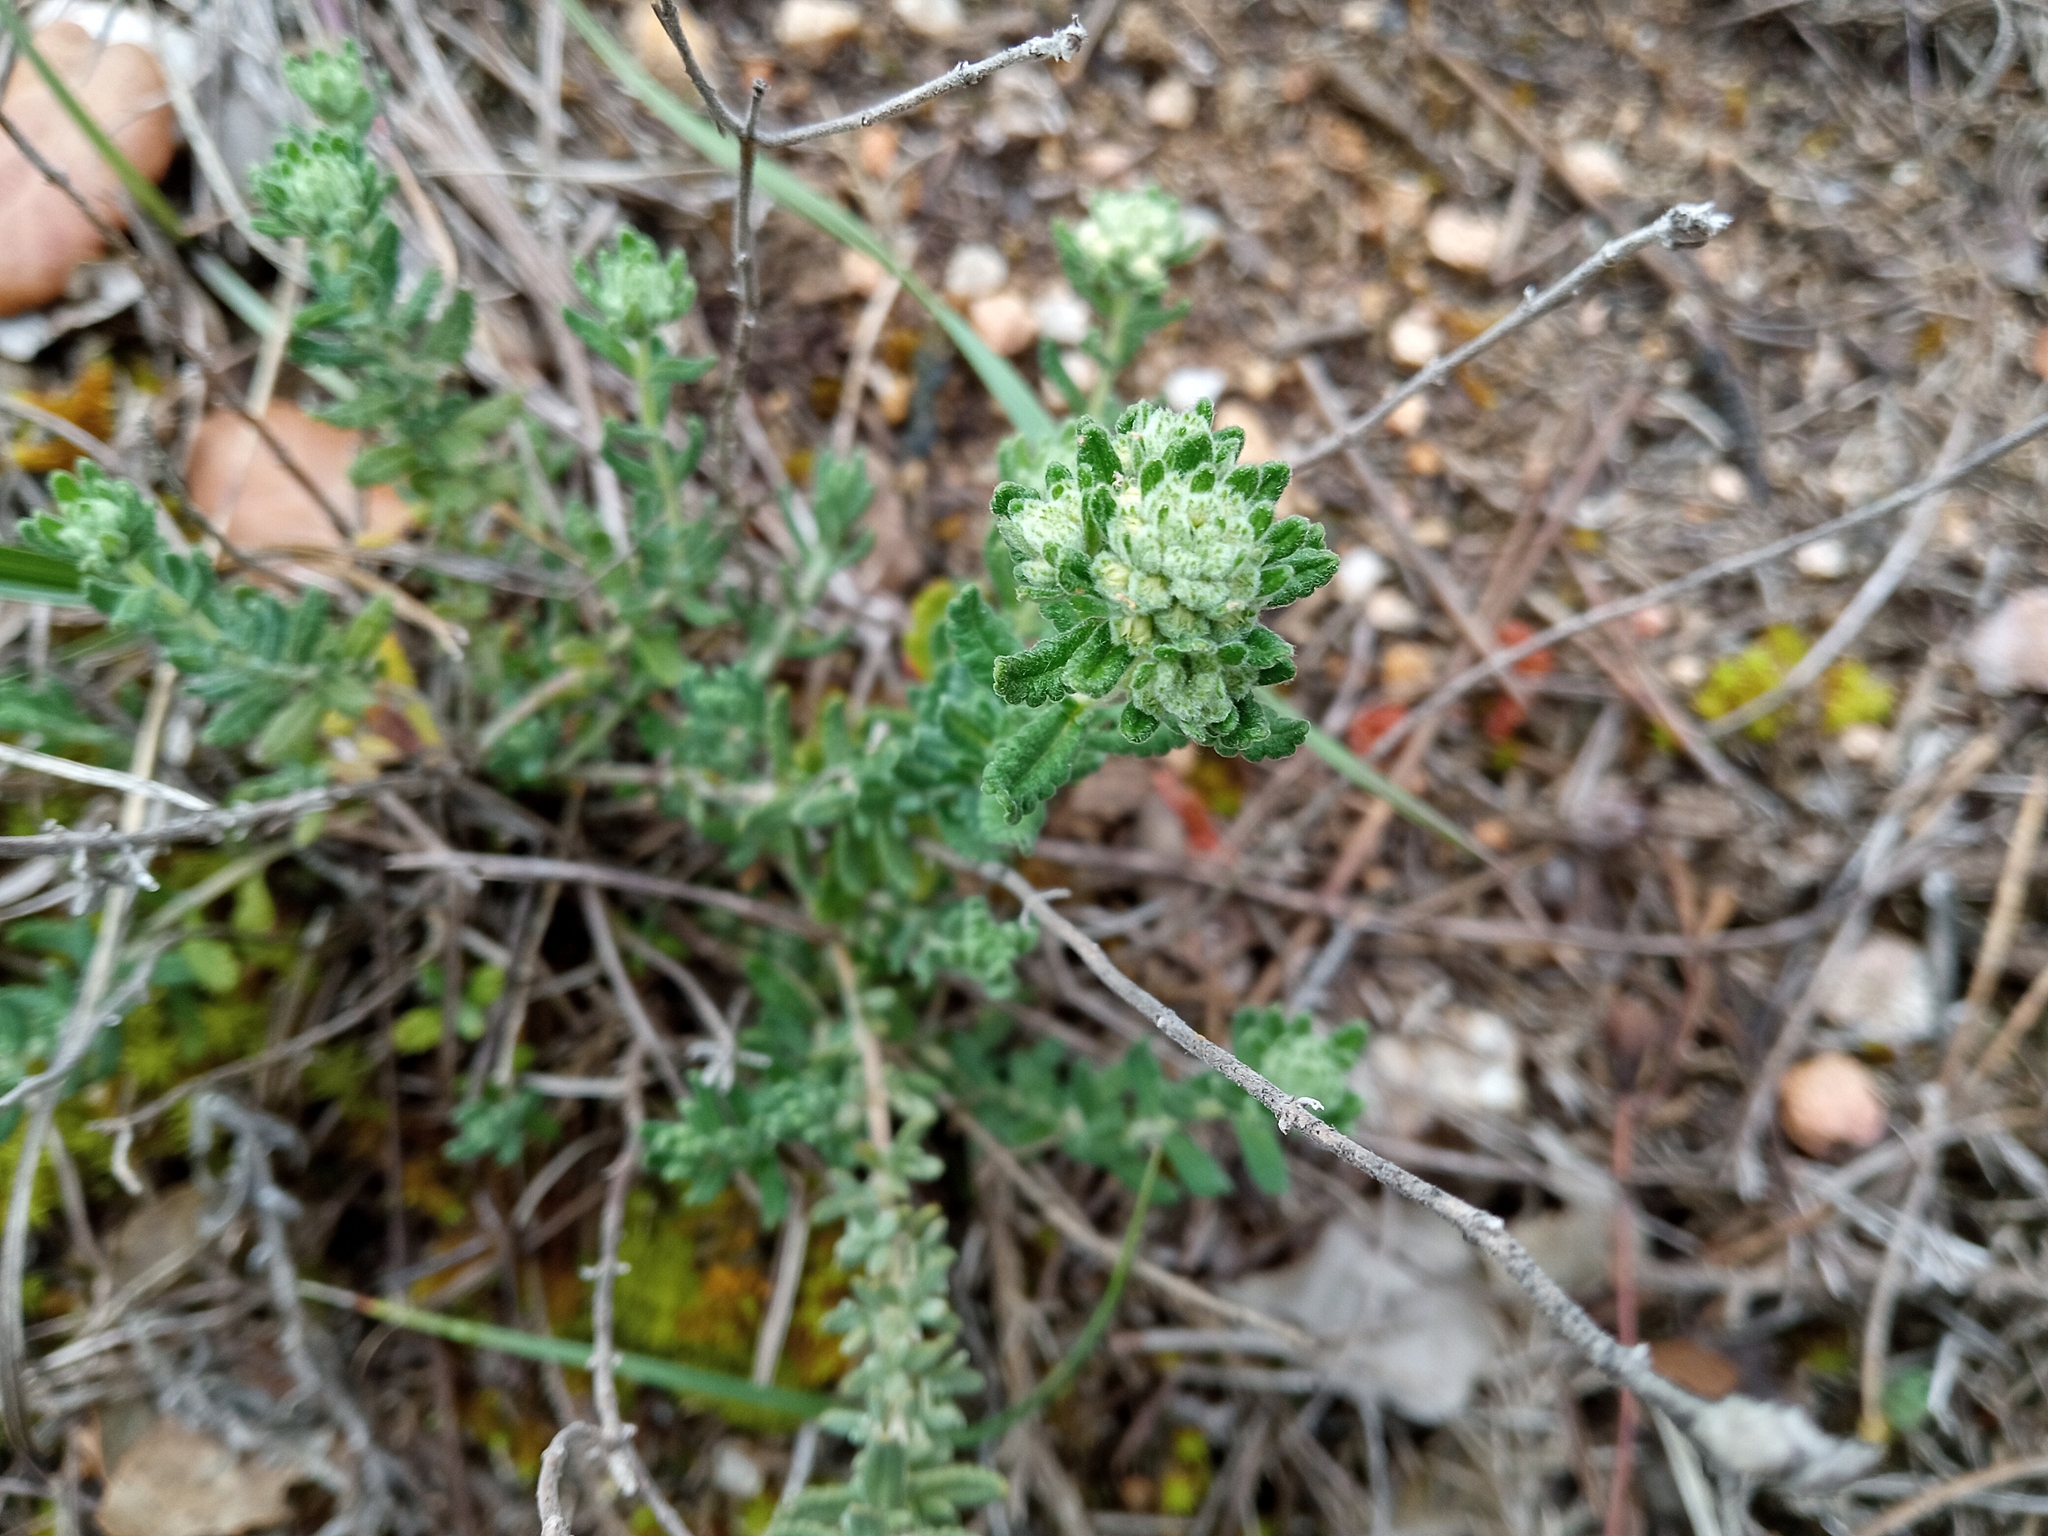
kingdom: Plantae
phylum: Tracheophyta
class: Magnoliopsida
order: Lamiales
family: Lamiaceae
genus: Teucrium
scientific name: Teucrium polium
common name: Poley
